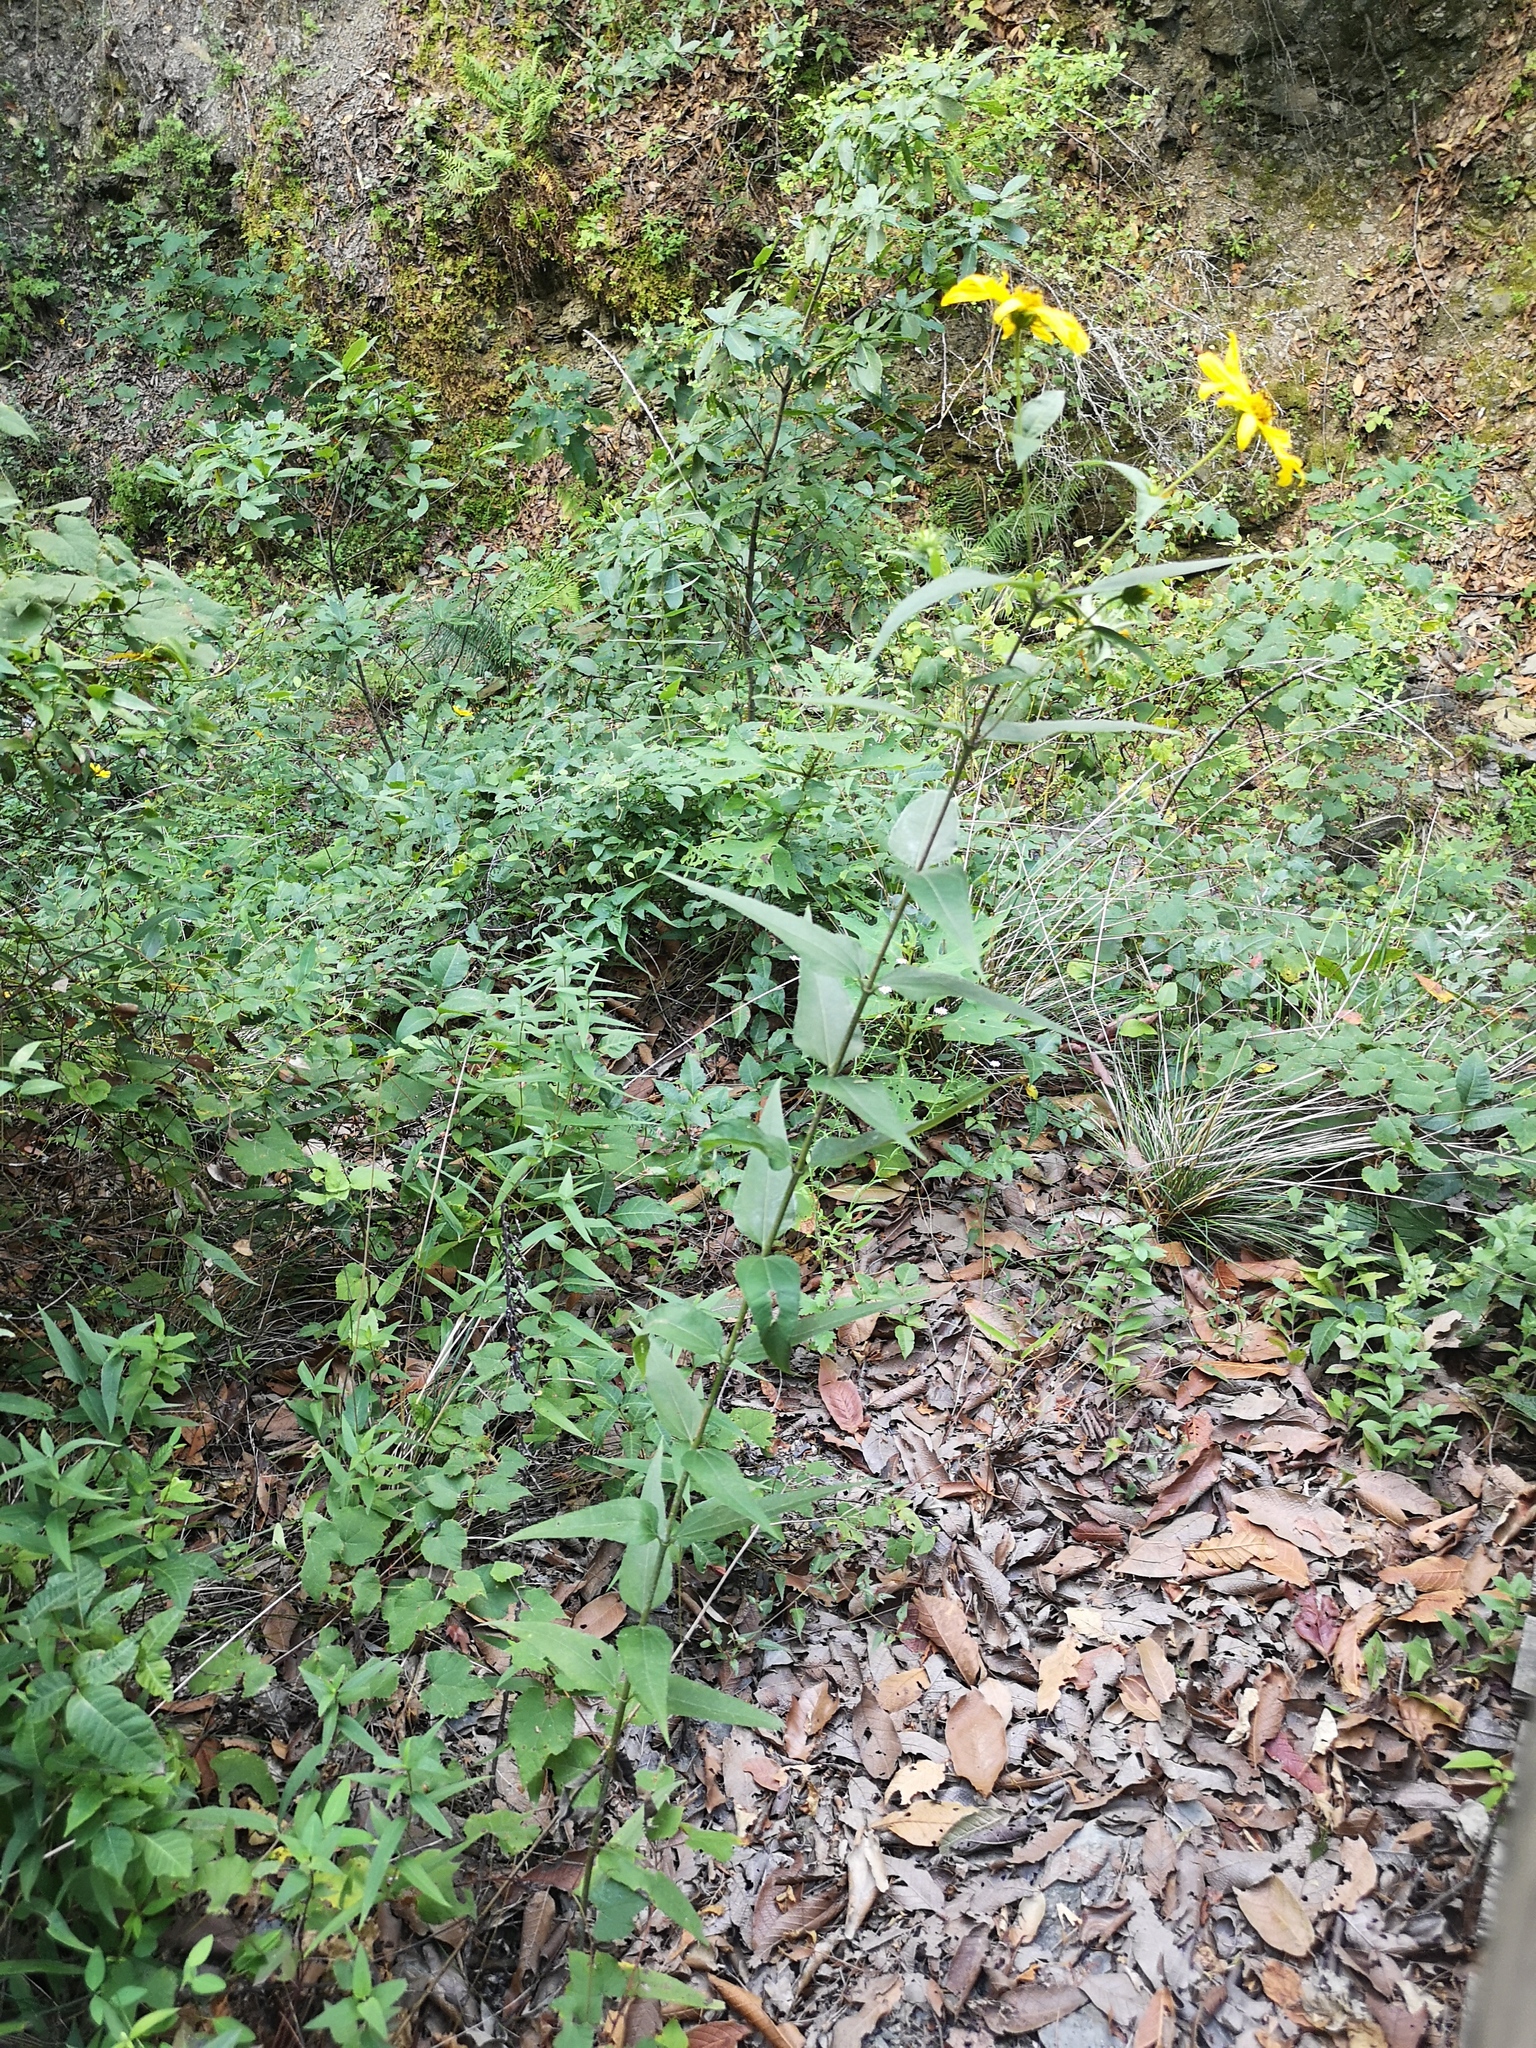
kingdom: Plantae
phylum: Tracheophyta
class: Magnoliopsida
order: Asterales
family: Asteraceae
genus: Helianthus
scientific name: Helianthus hirsutus
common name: Hairy sunflower
